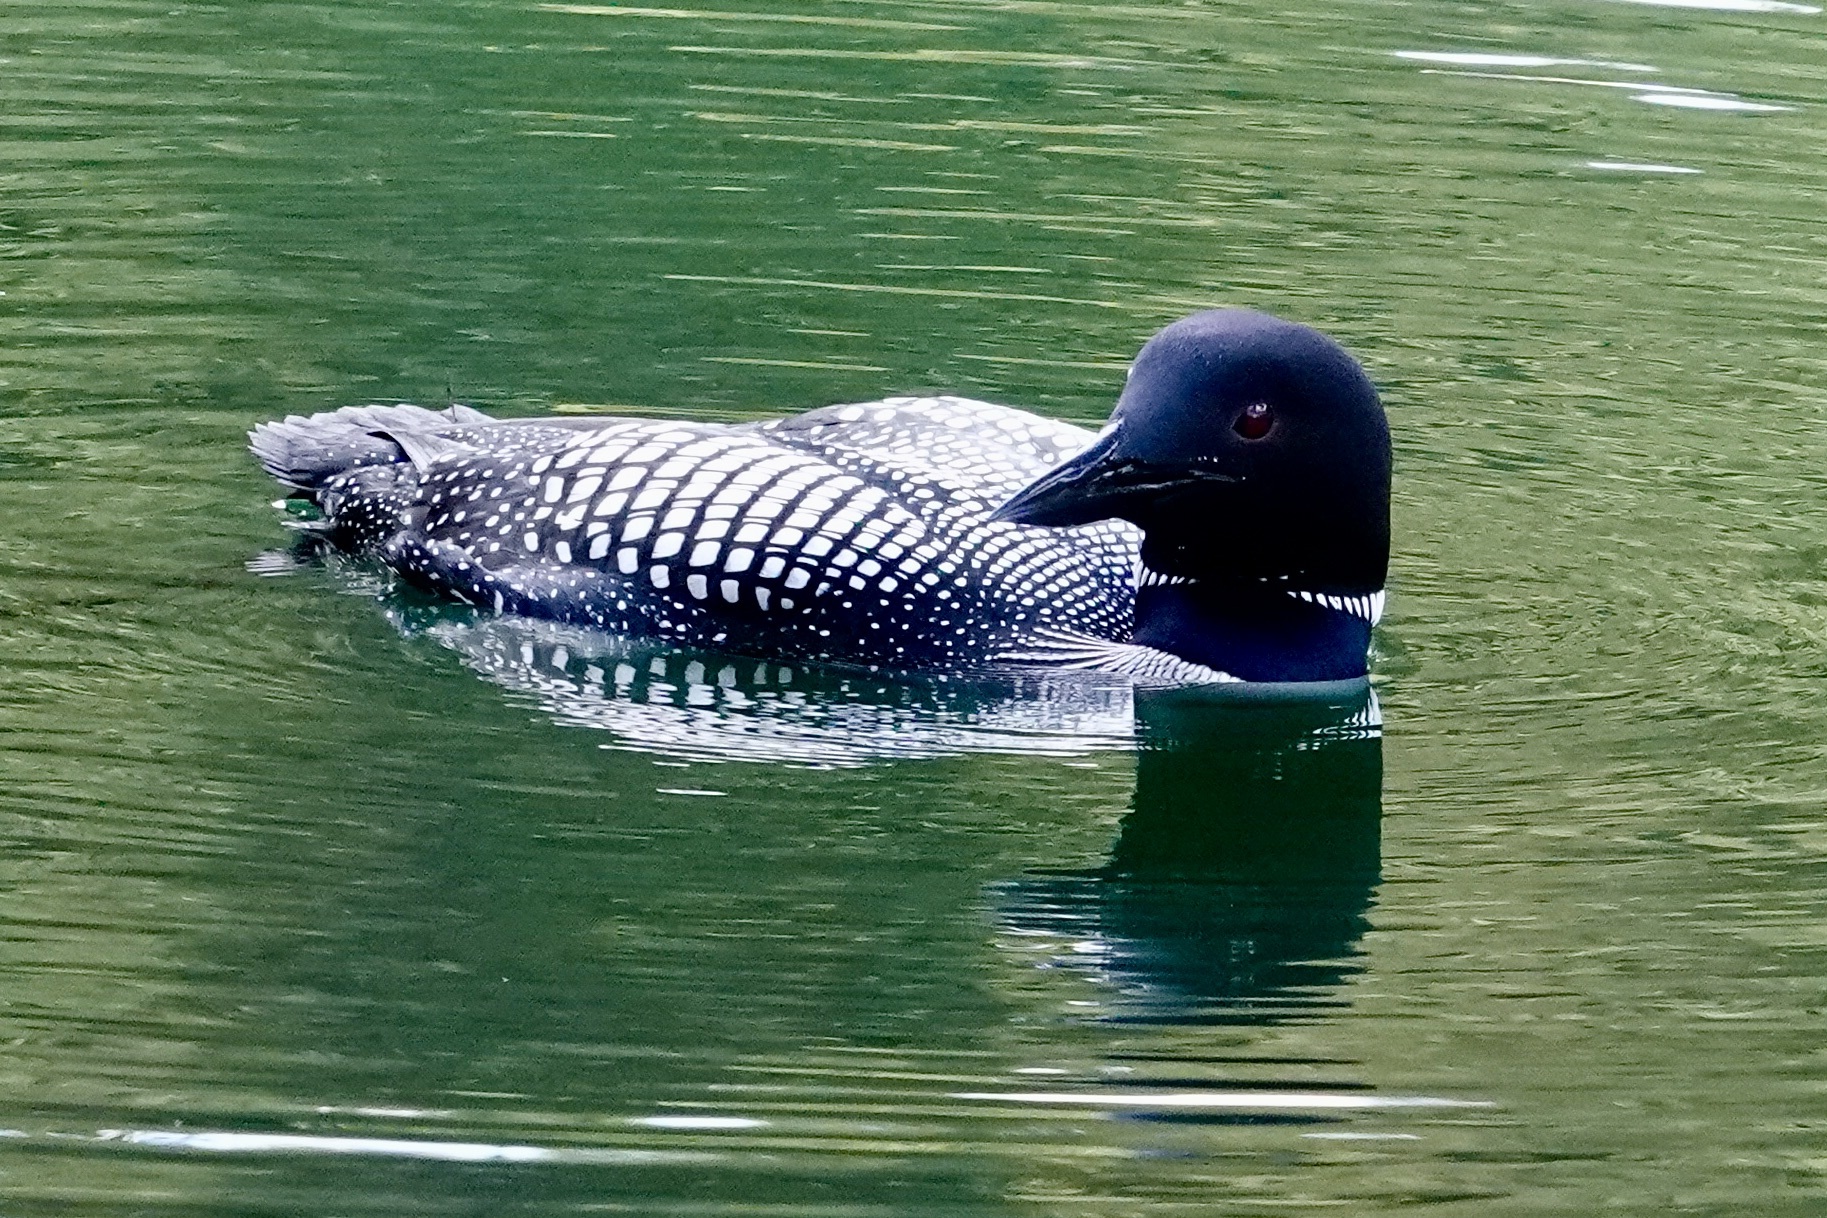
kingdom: Animalia
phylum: Chordata
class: Aves
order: Gaviiformes
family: Gaviidae
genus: Gavia
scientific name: Gavia immer
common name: Common loon
